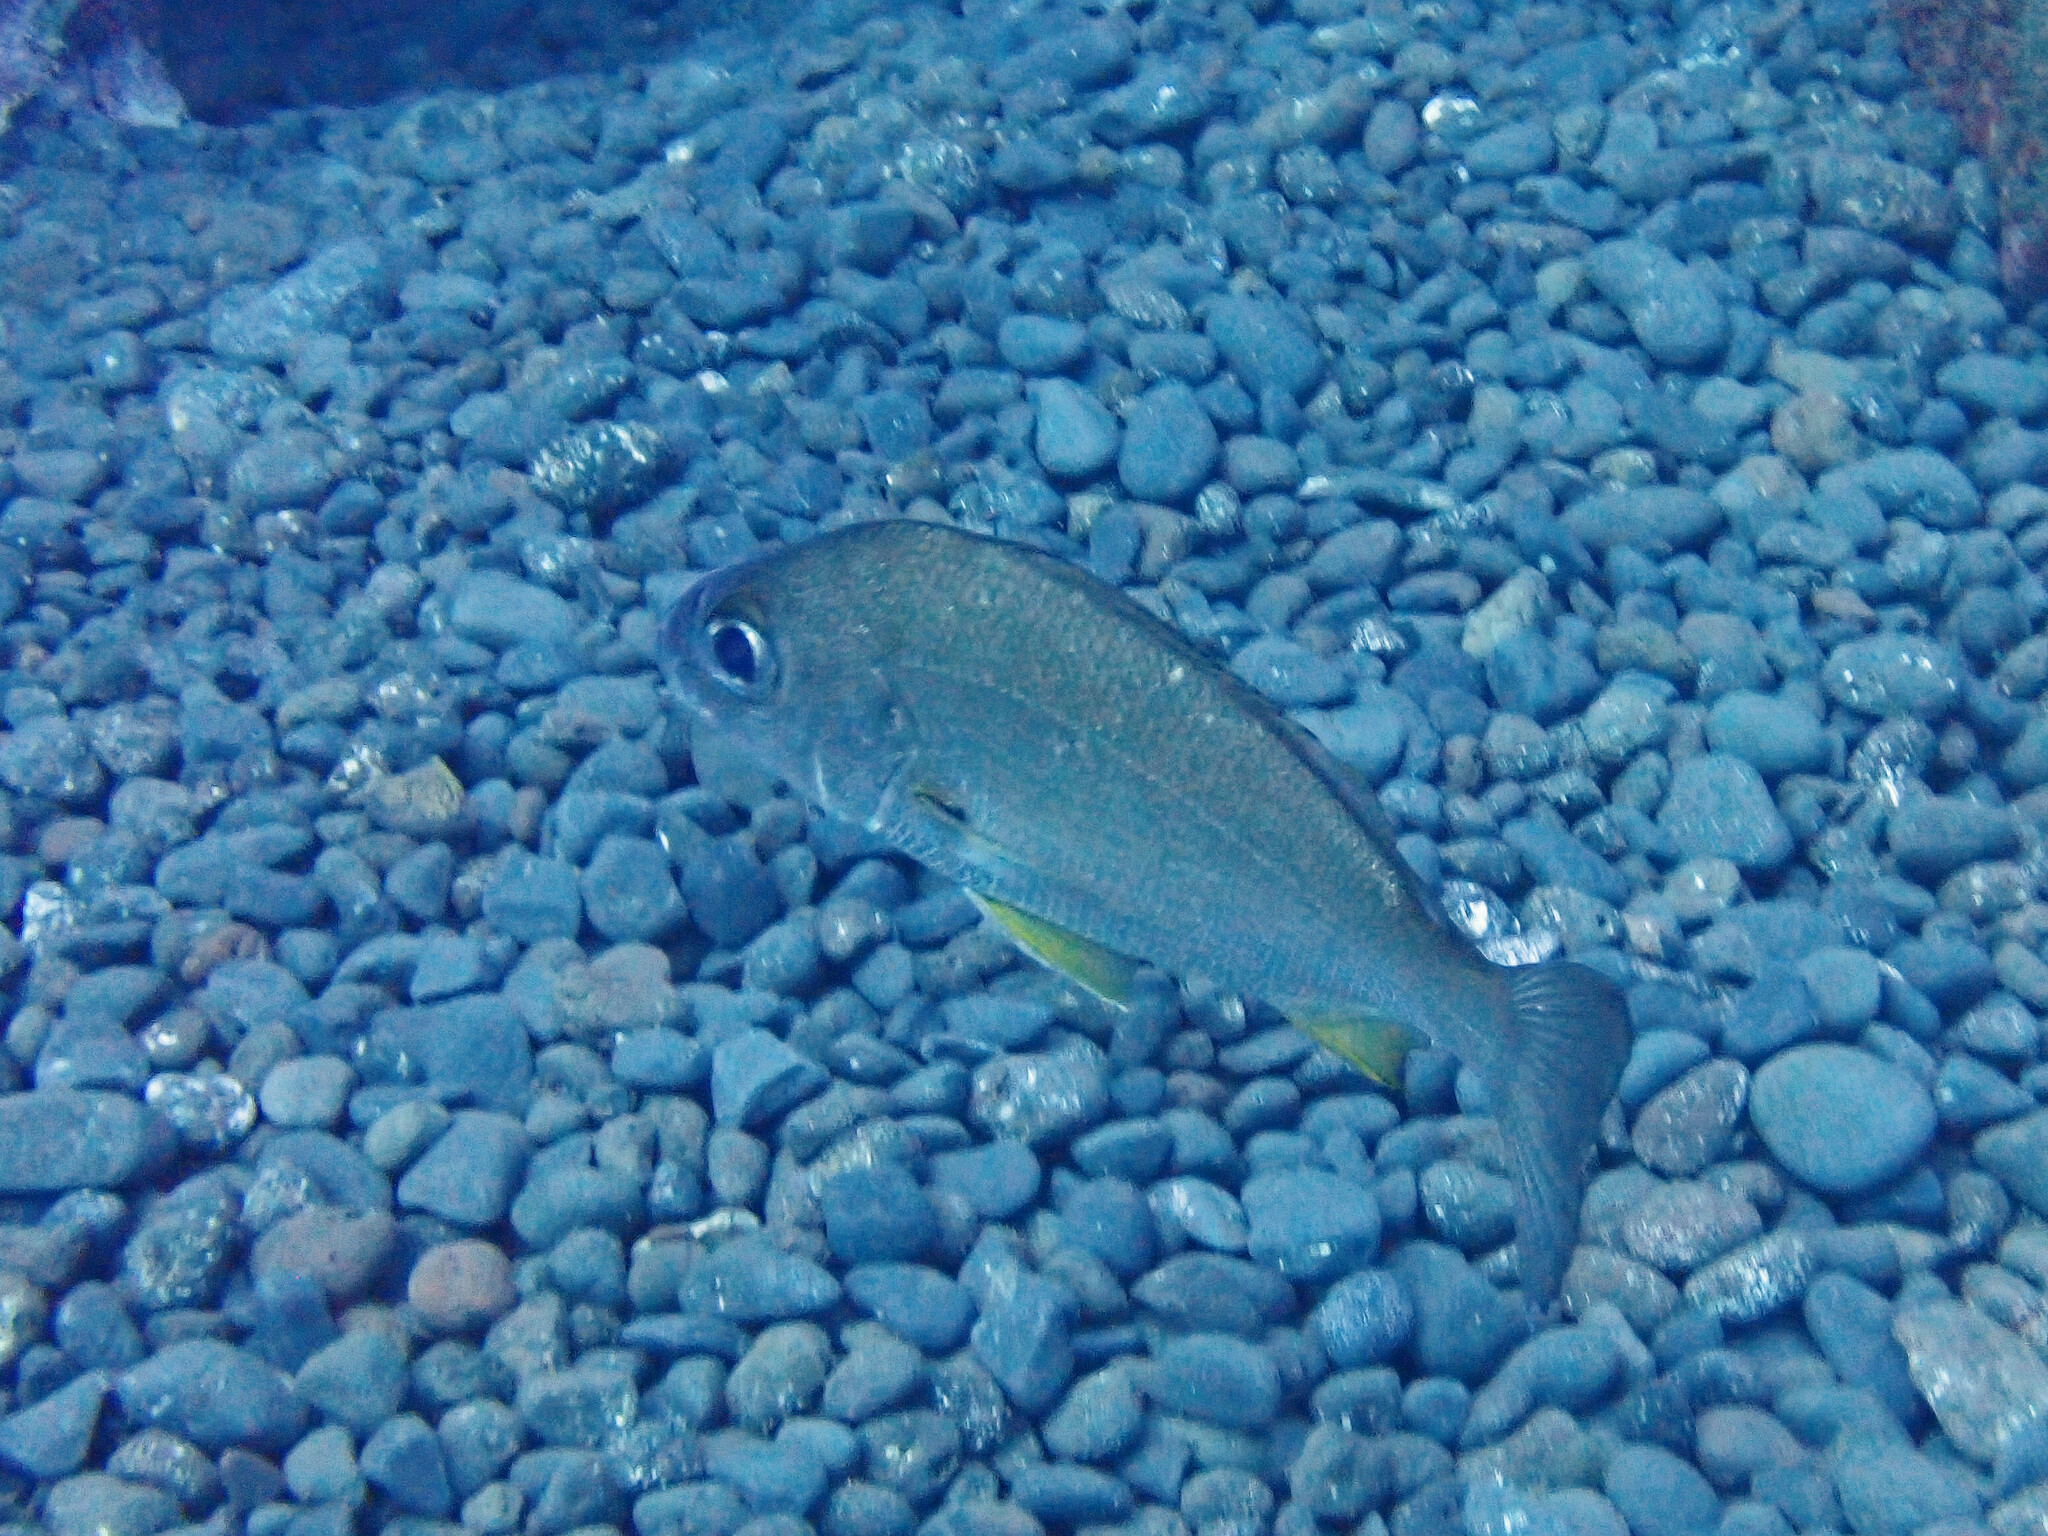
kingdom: Animalia
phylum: Chordata
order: Perciformes
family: Haemulidae
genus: Pomadasys
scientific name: Pomadasys incisus
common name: Bastard grunt
